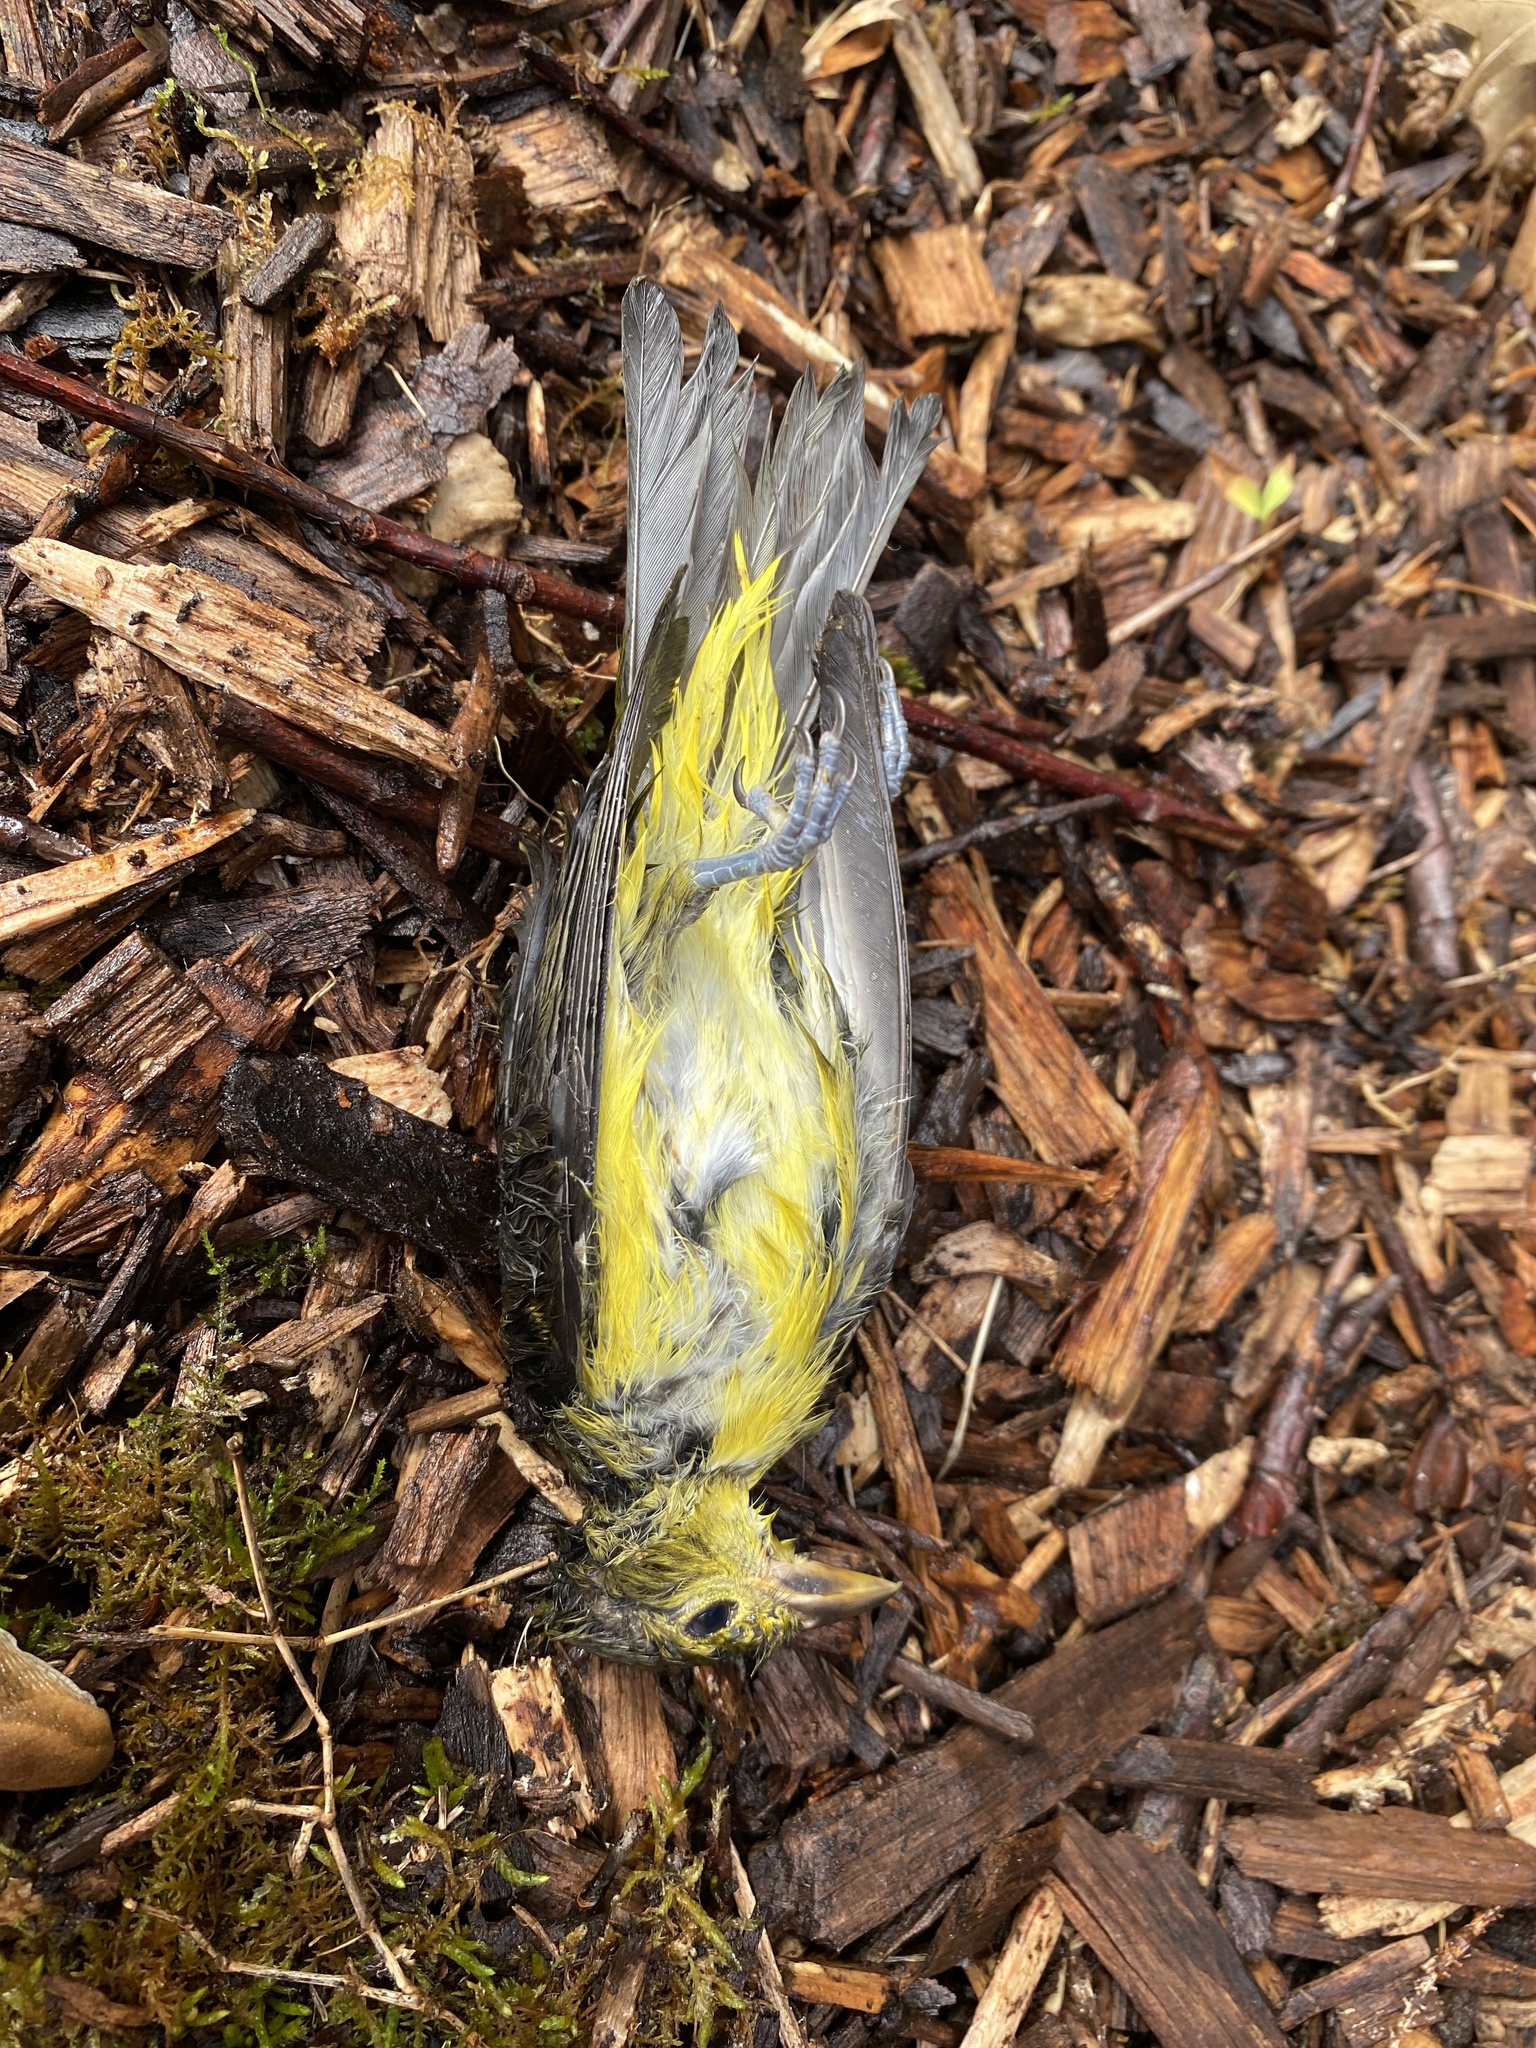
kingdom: Animalia
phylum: Chordata
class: Aves
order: Passeriformes
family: Cardinalidae
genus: Piranga
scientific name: Piranga olivacea
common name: Scarlet tanager
